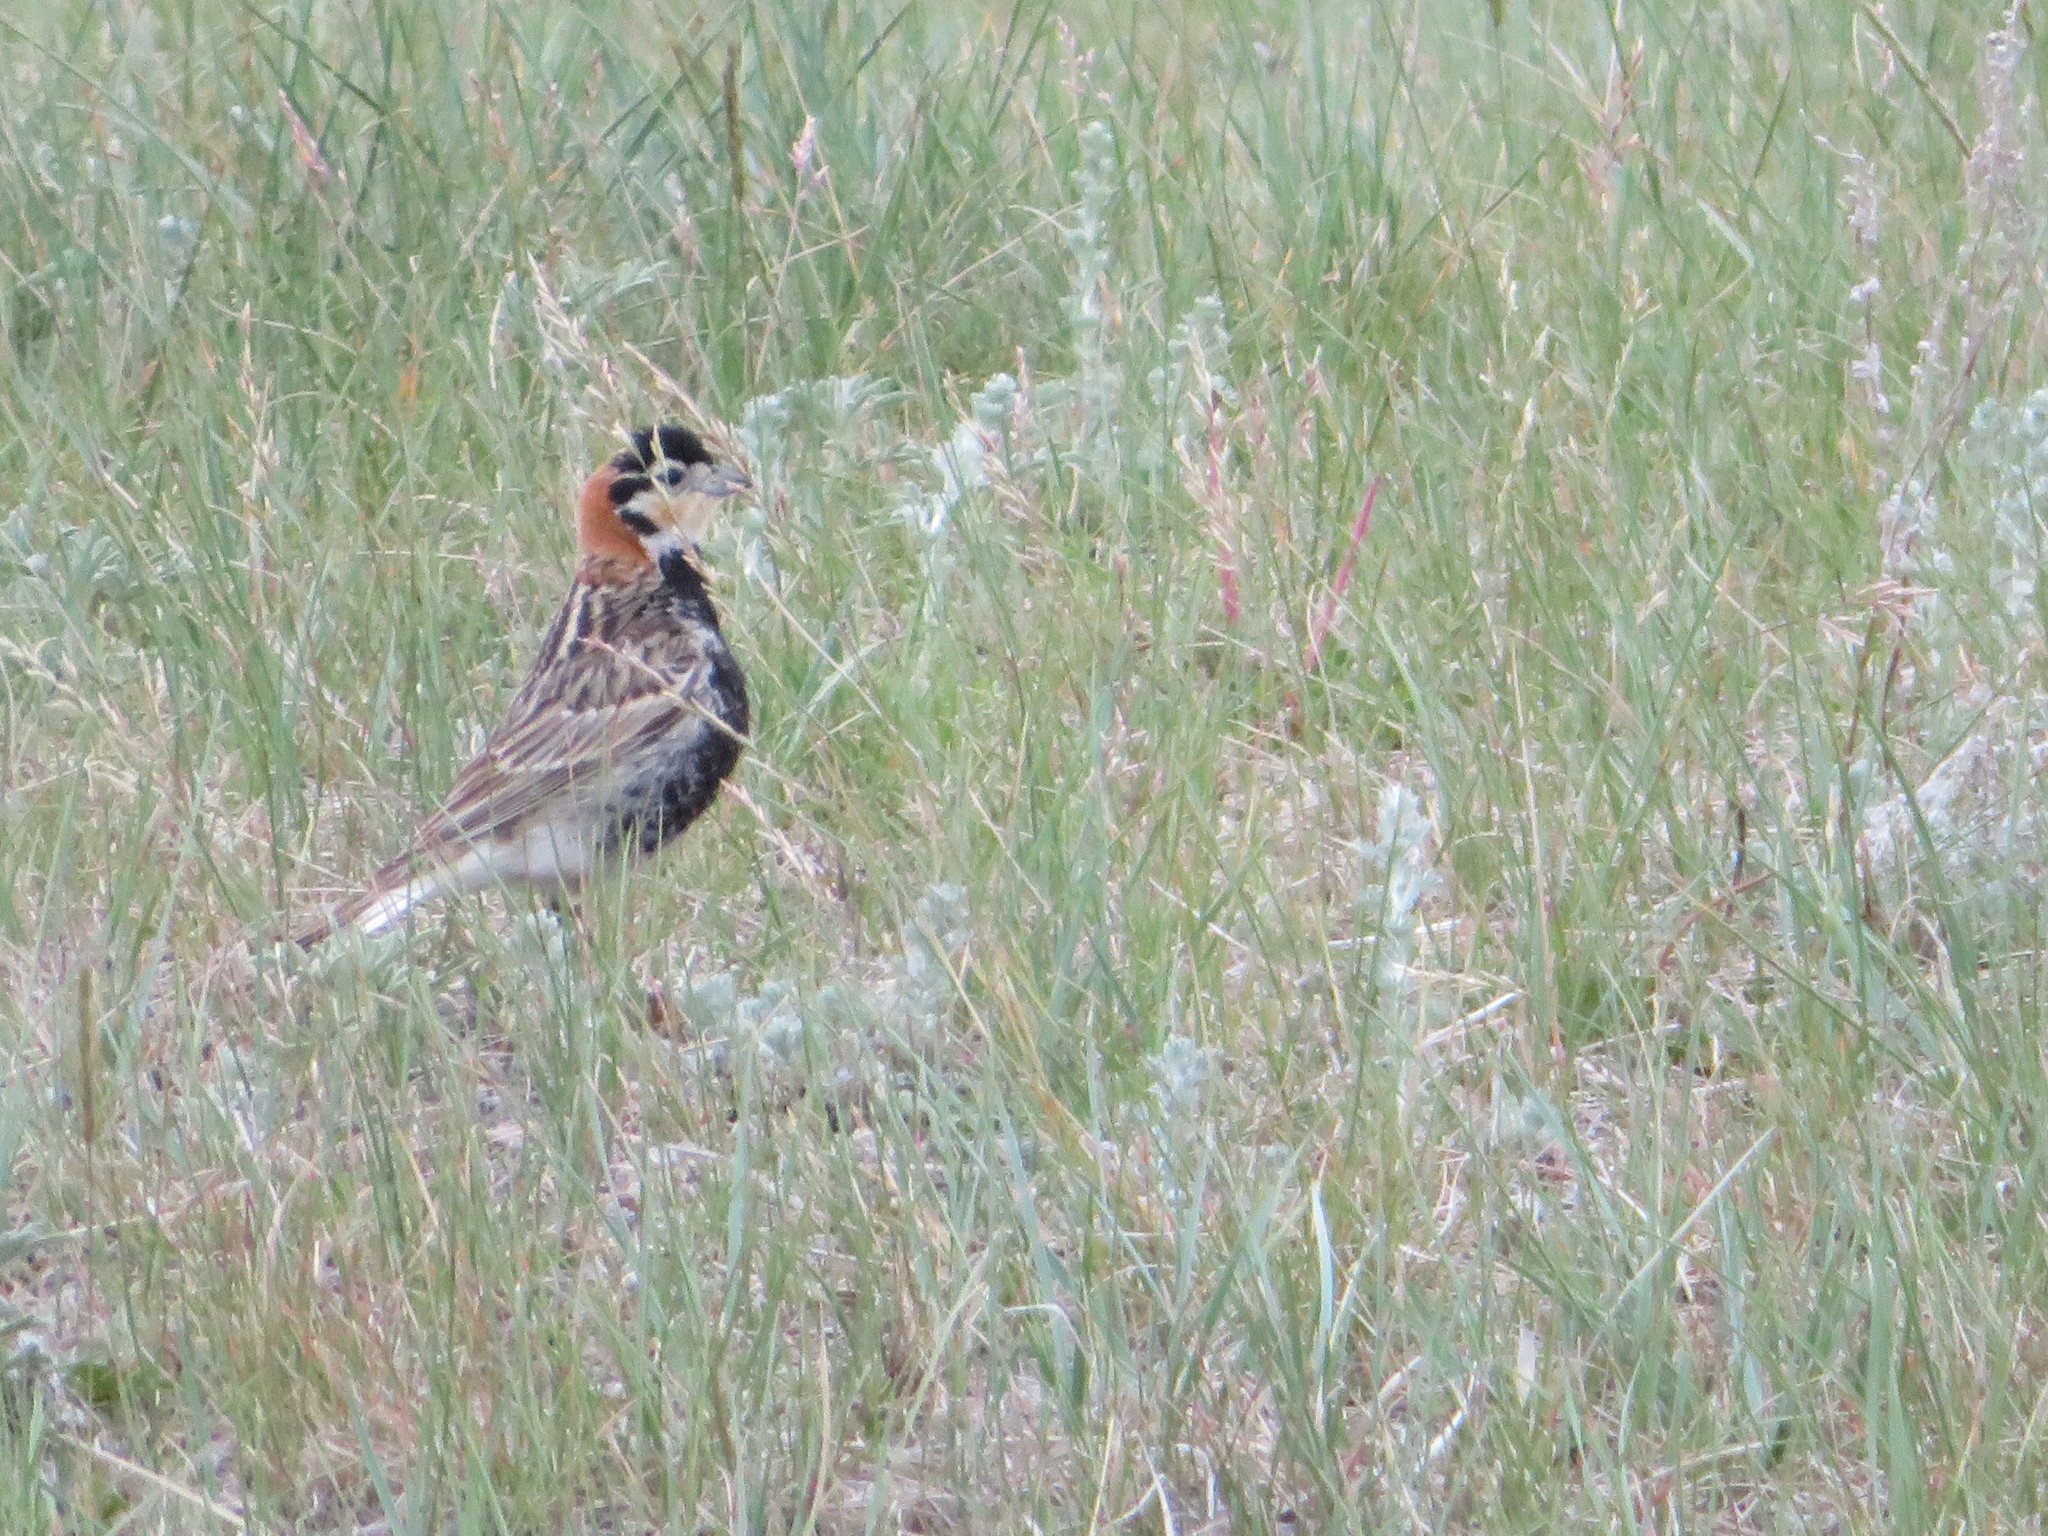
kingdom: Animalia
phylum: Chordata
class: Aves
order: Passeriformes
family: Calcariidae
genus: Calcarius
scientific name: Calcarius ornatus
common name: Chestnut-collared longspur
